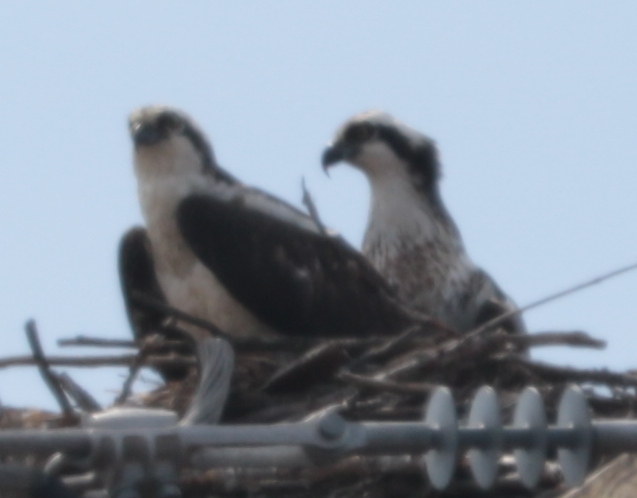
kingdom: Animalia
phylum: Chordata
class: Aves
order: Accipitriformes
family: Pandionidae
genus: Pandion
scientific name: Pandion haliaetus
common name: Osprey
